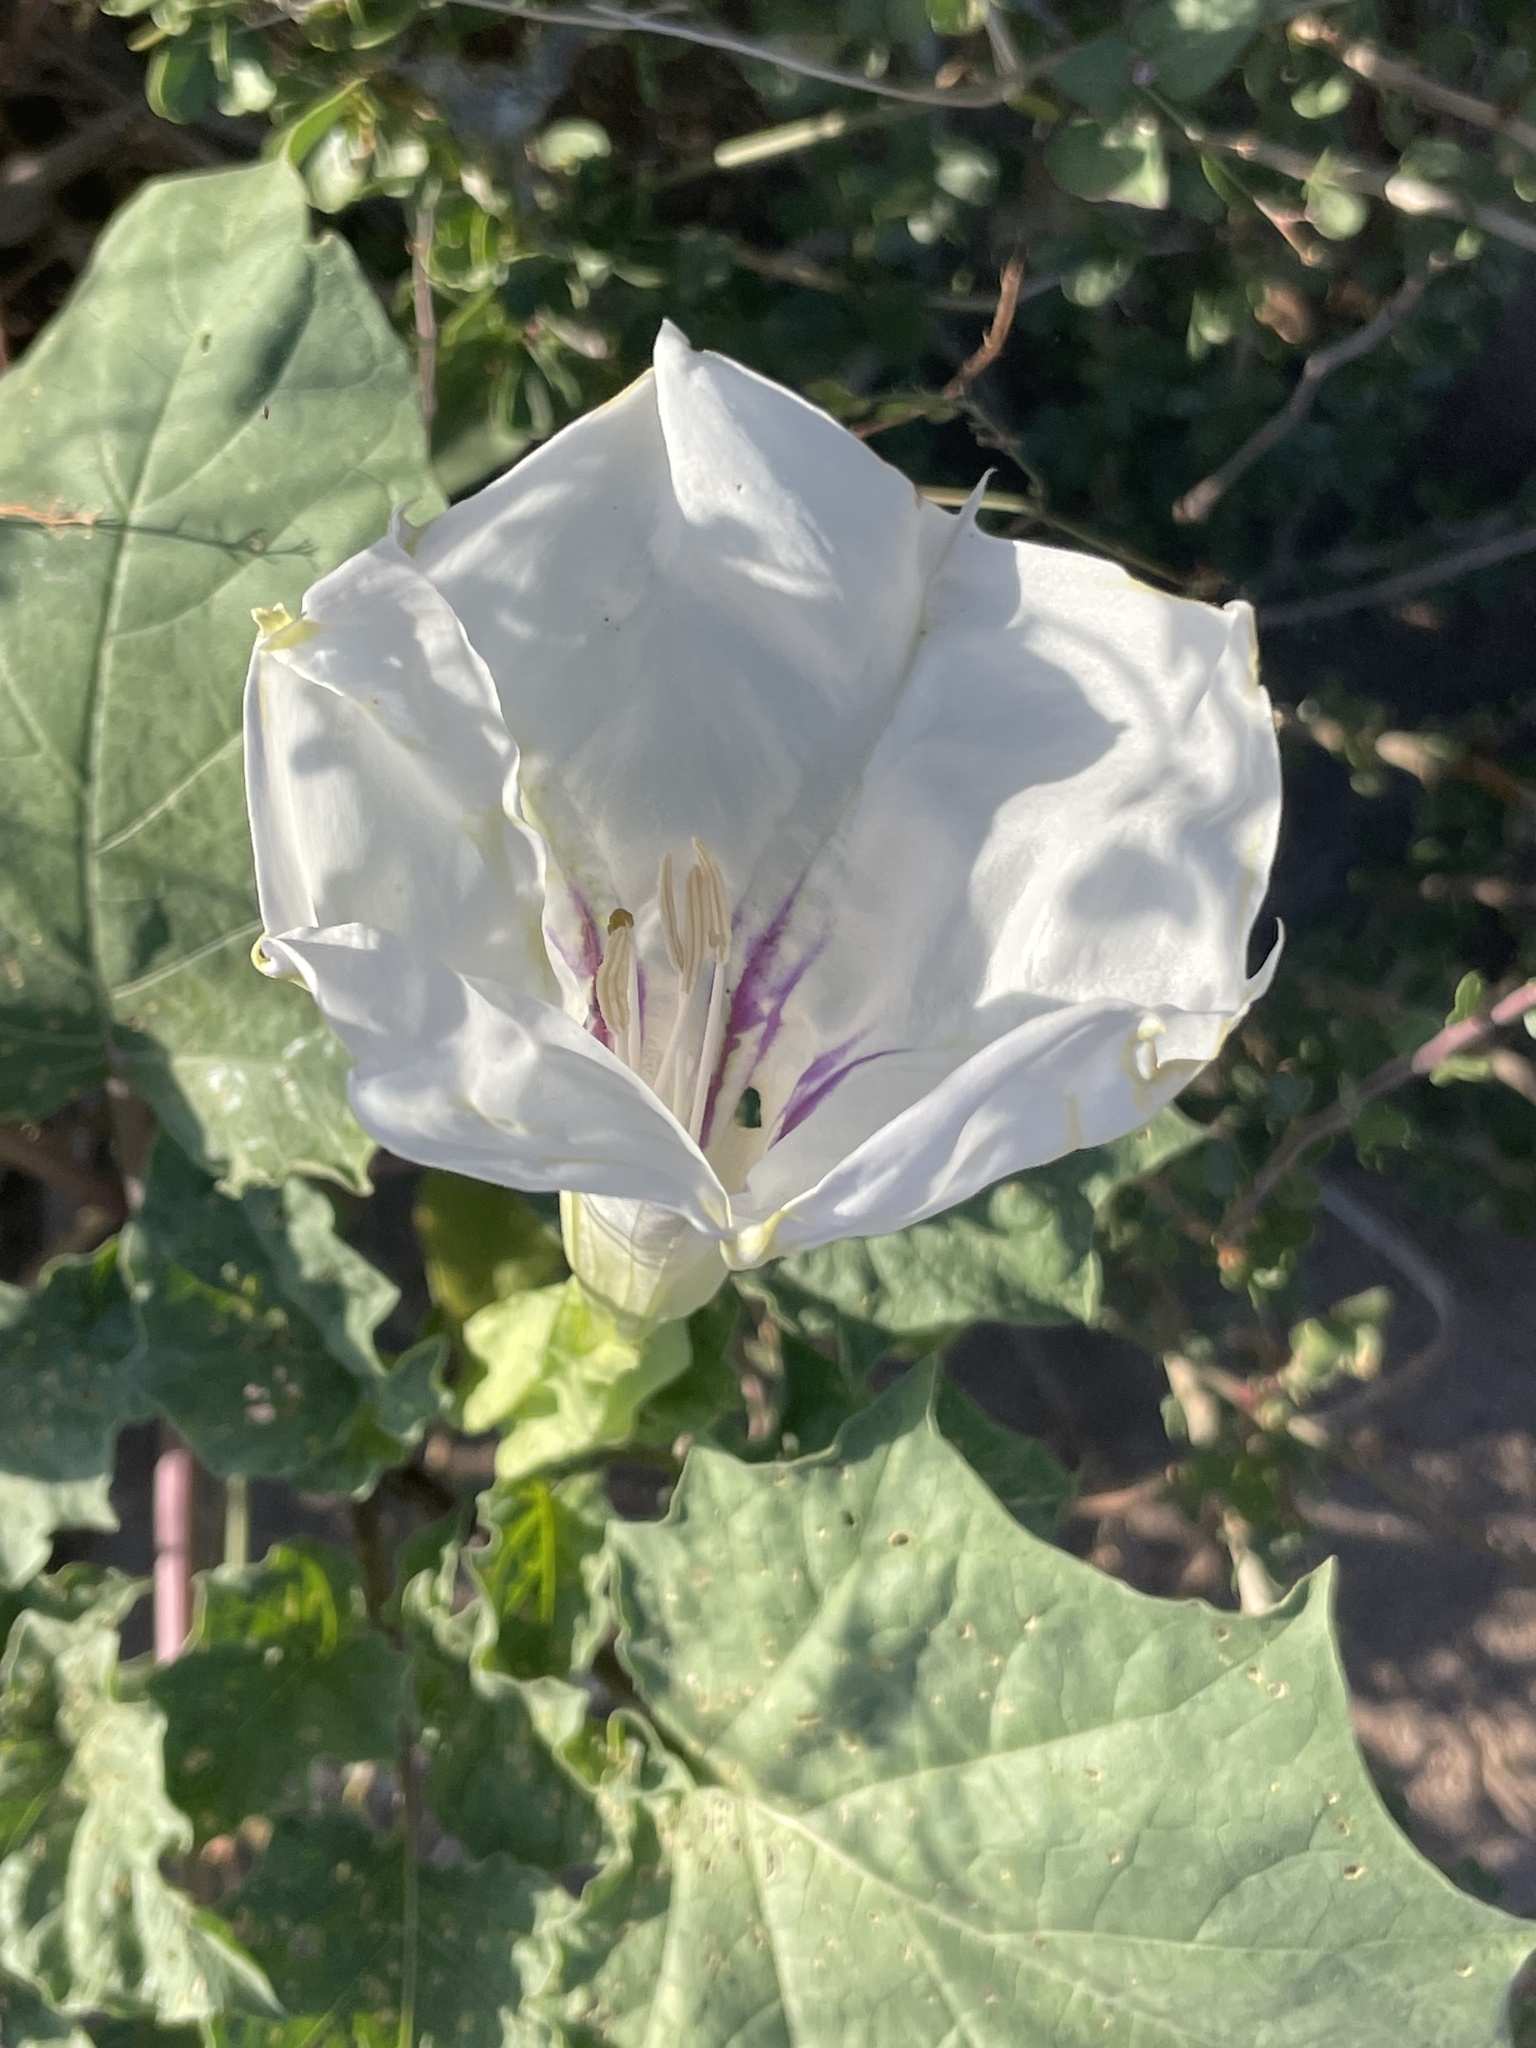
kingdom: Plantae
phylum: Tracheophyta
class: Magnoliopsida
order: Solanales
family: Solanaceae
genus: Datura
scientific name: Datura discolor
